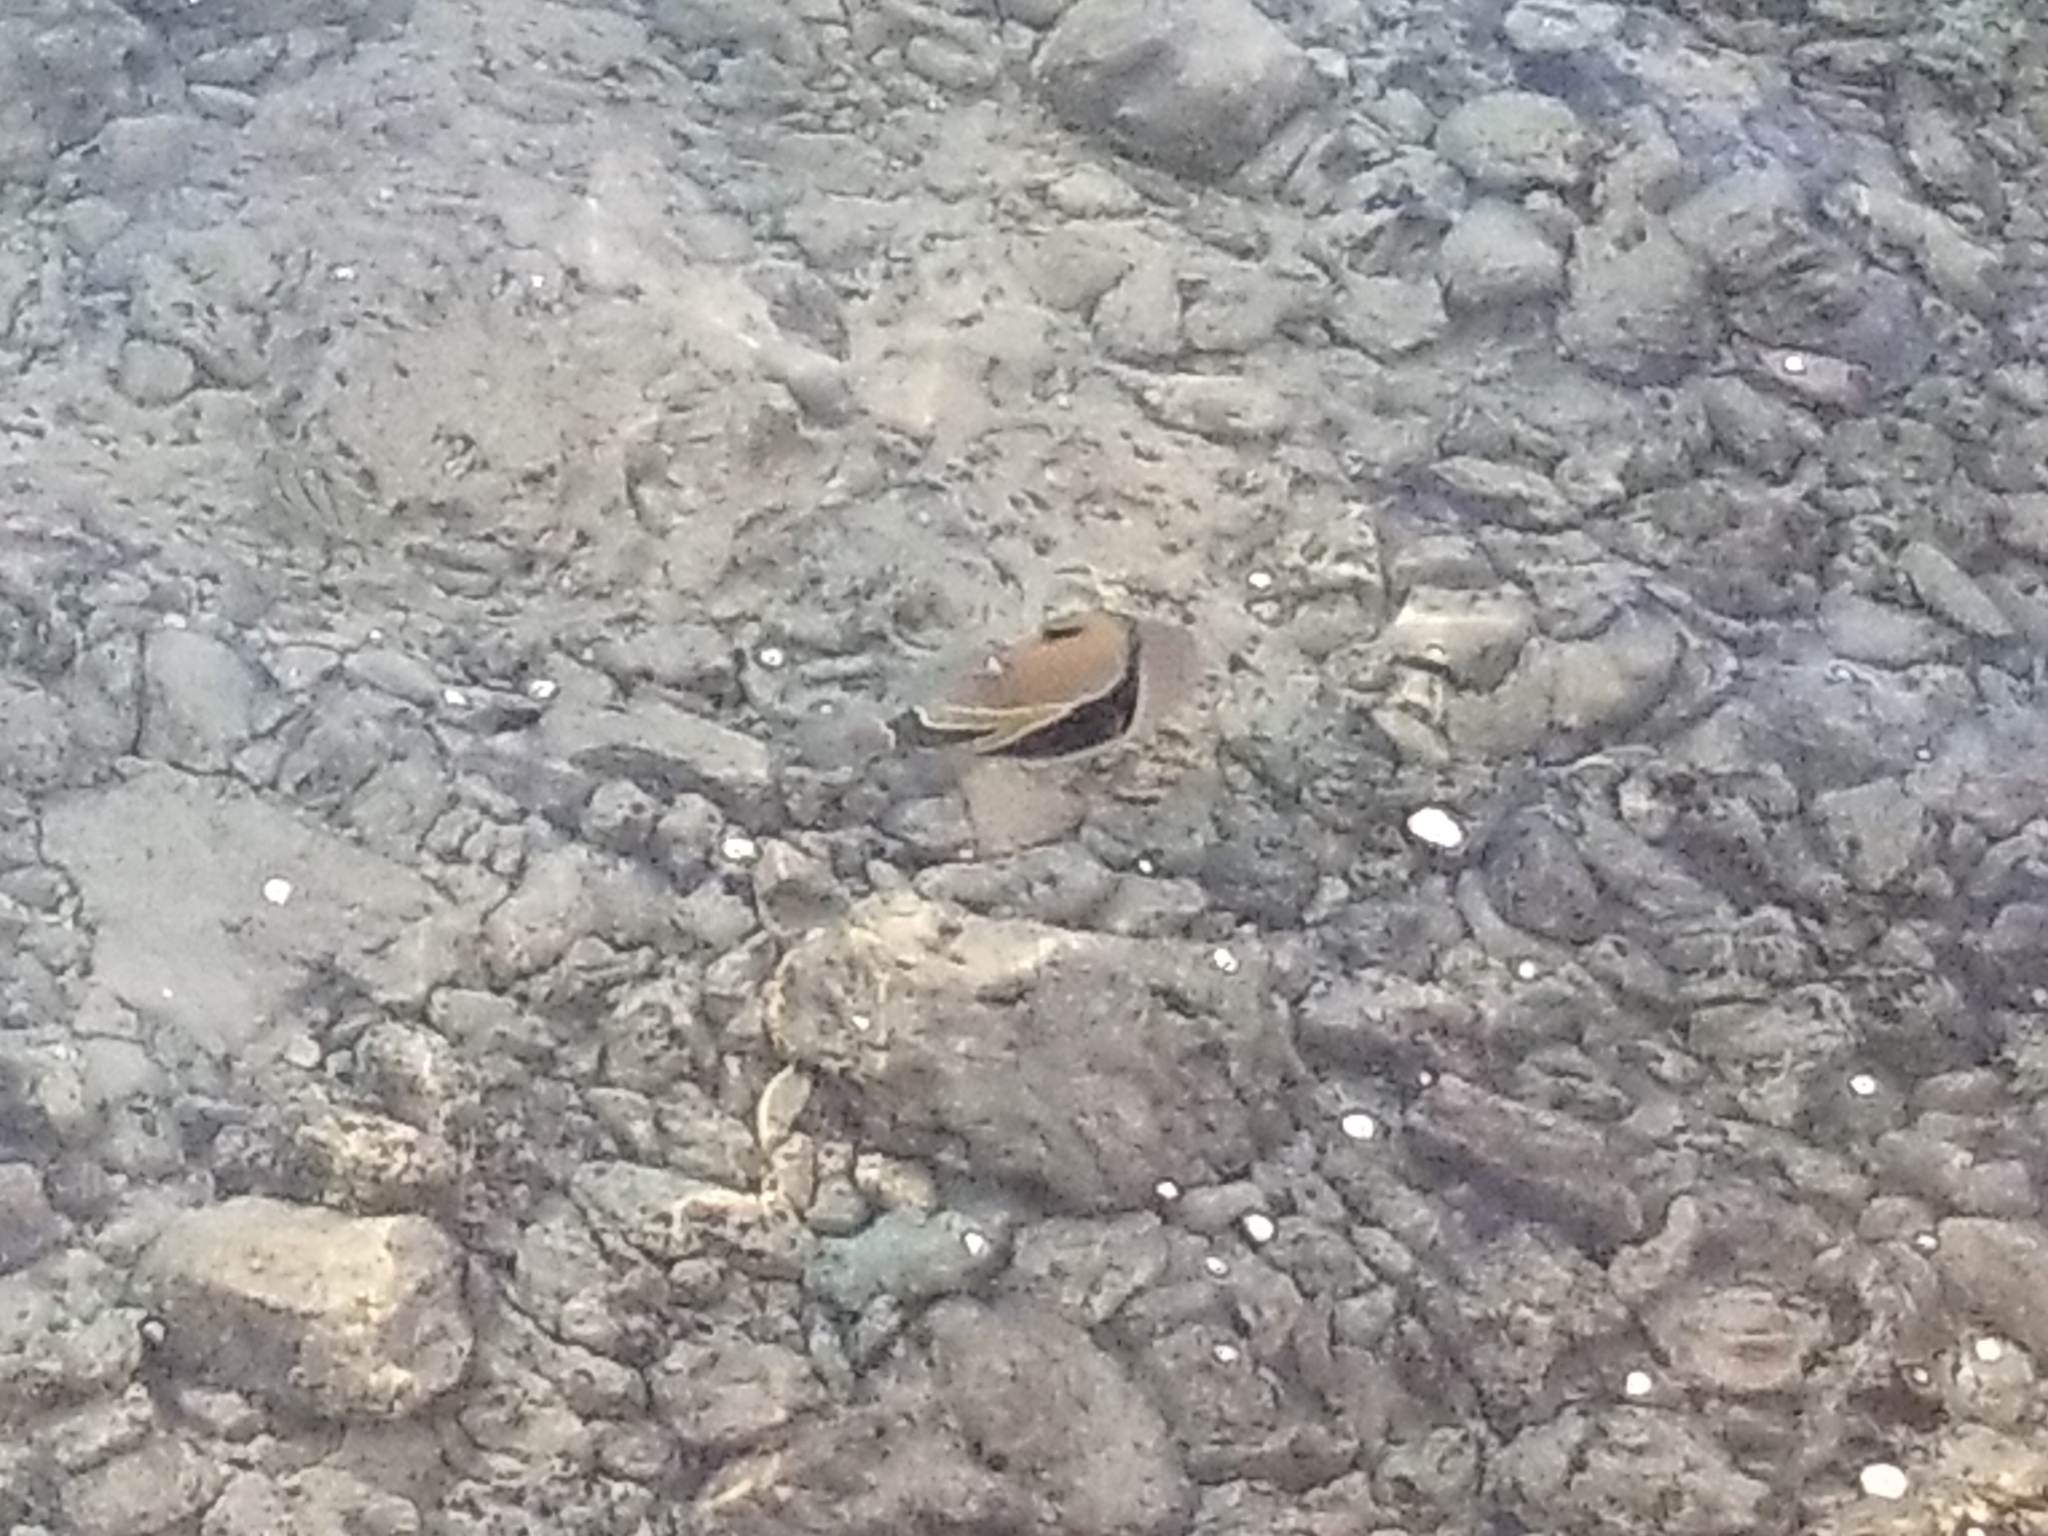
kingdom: Animalia
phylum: Chordata
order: Tetraodontiformes
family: Balistidae
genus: Rhinecanthus
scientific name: Rhinecanthus rectangulus
